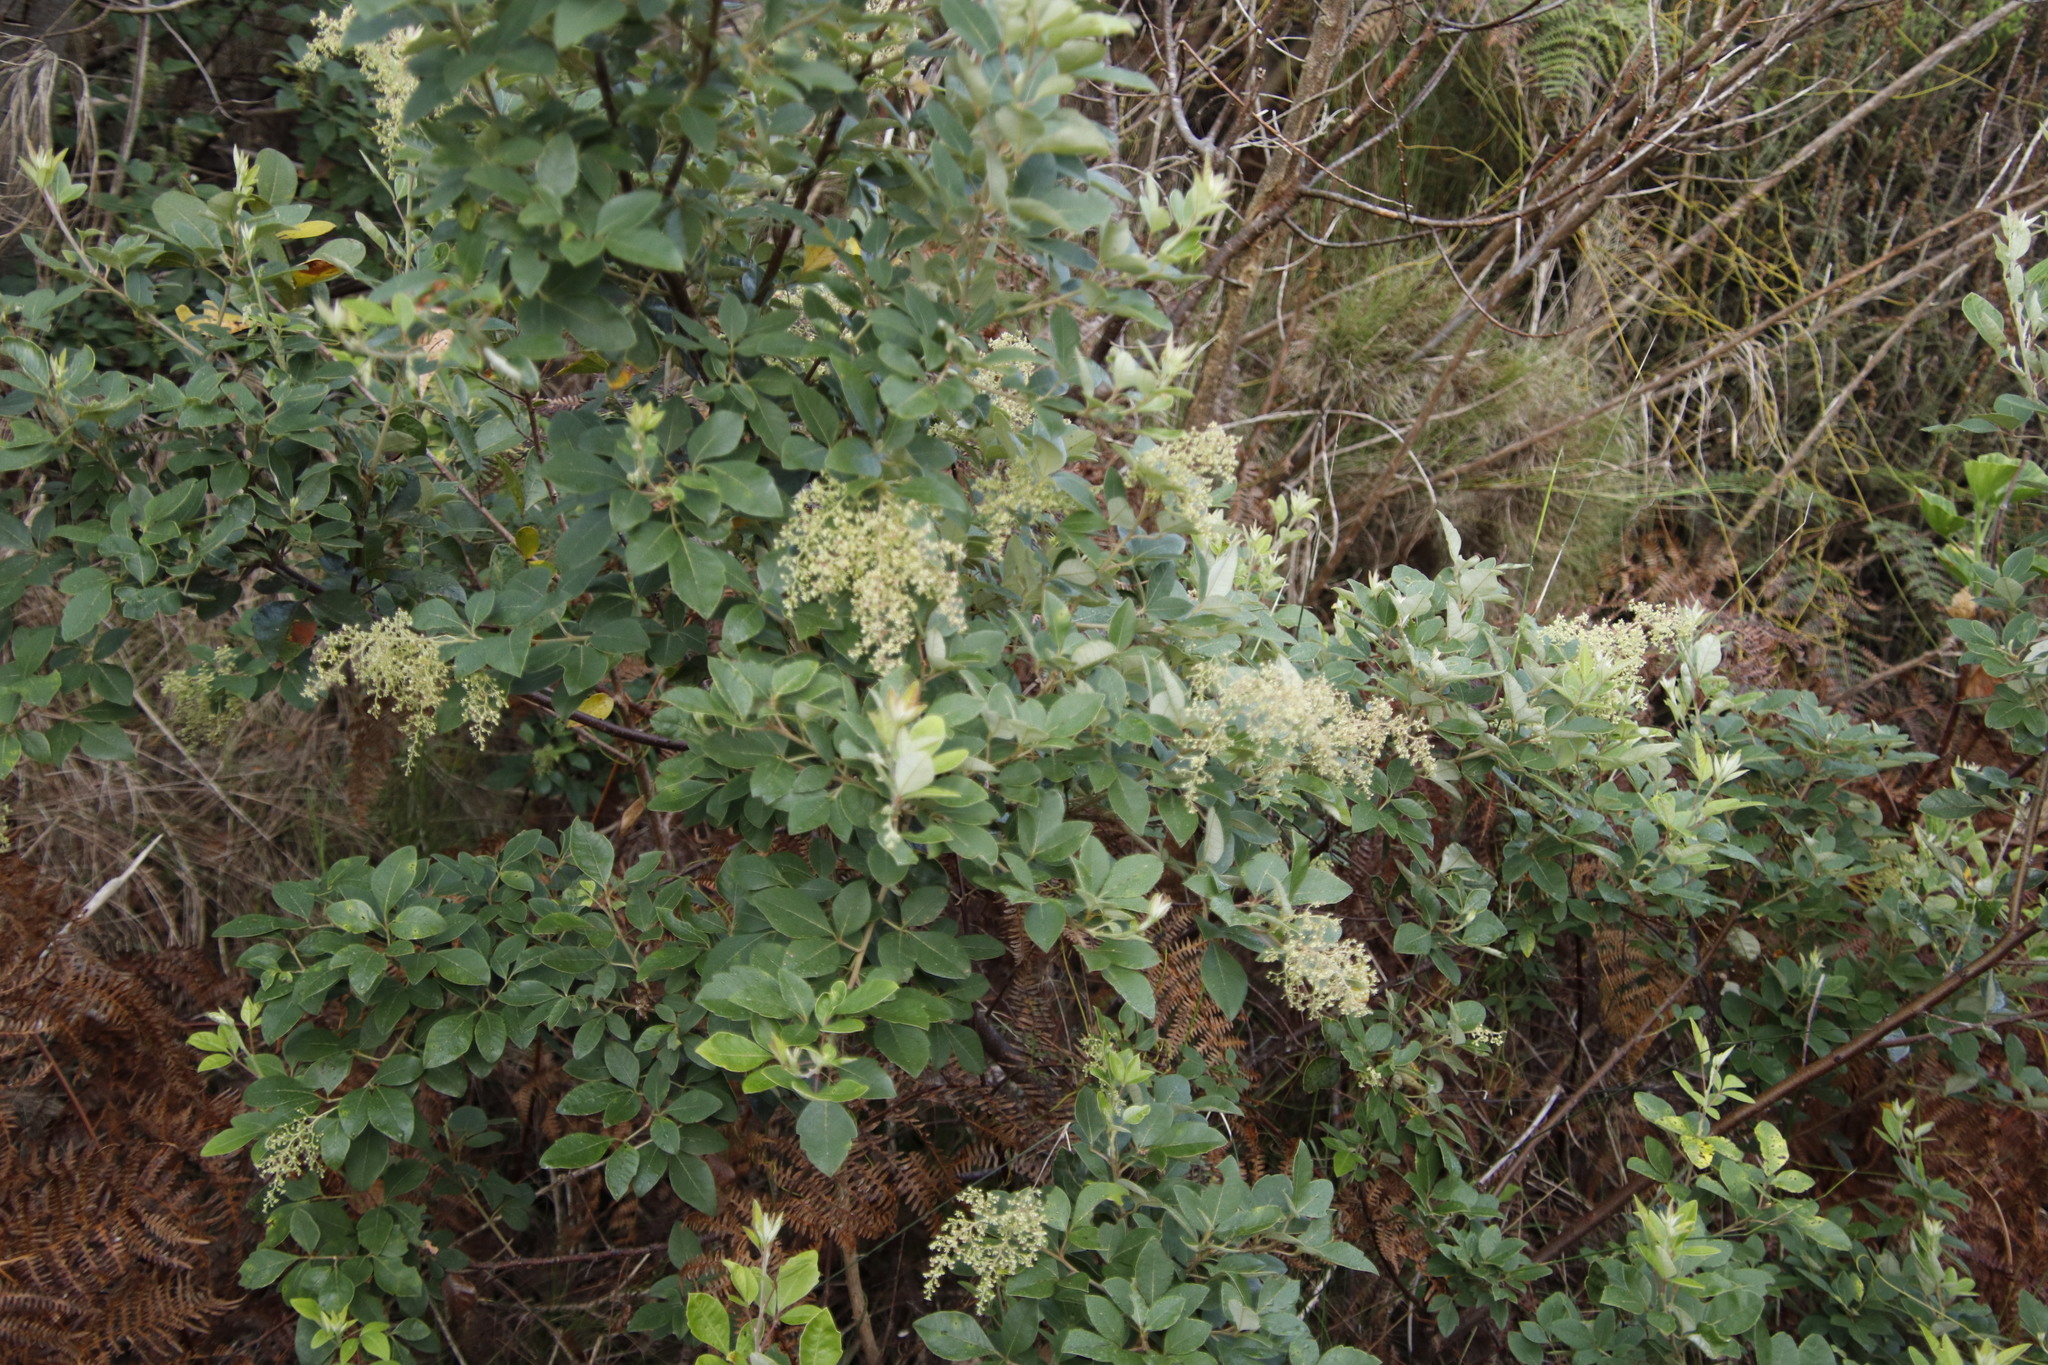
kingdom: Plantae
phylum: Tracheophyta
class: Magnoliopsida
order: Sapindales
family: Anacardiaceae
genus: Searsia
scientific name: Searsia tomentosa
